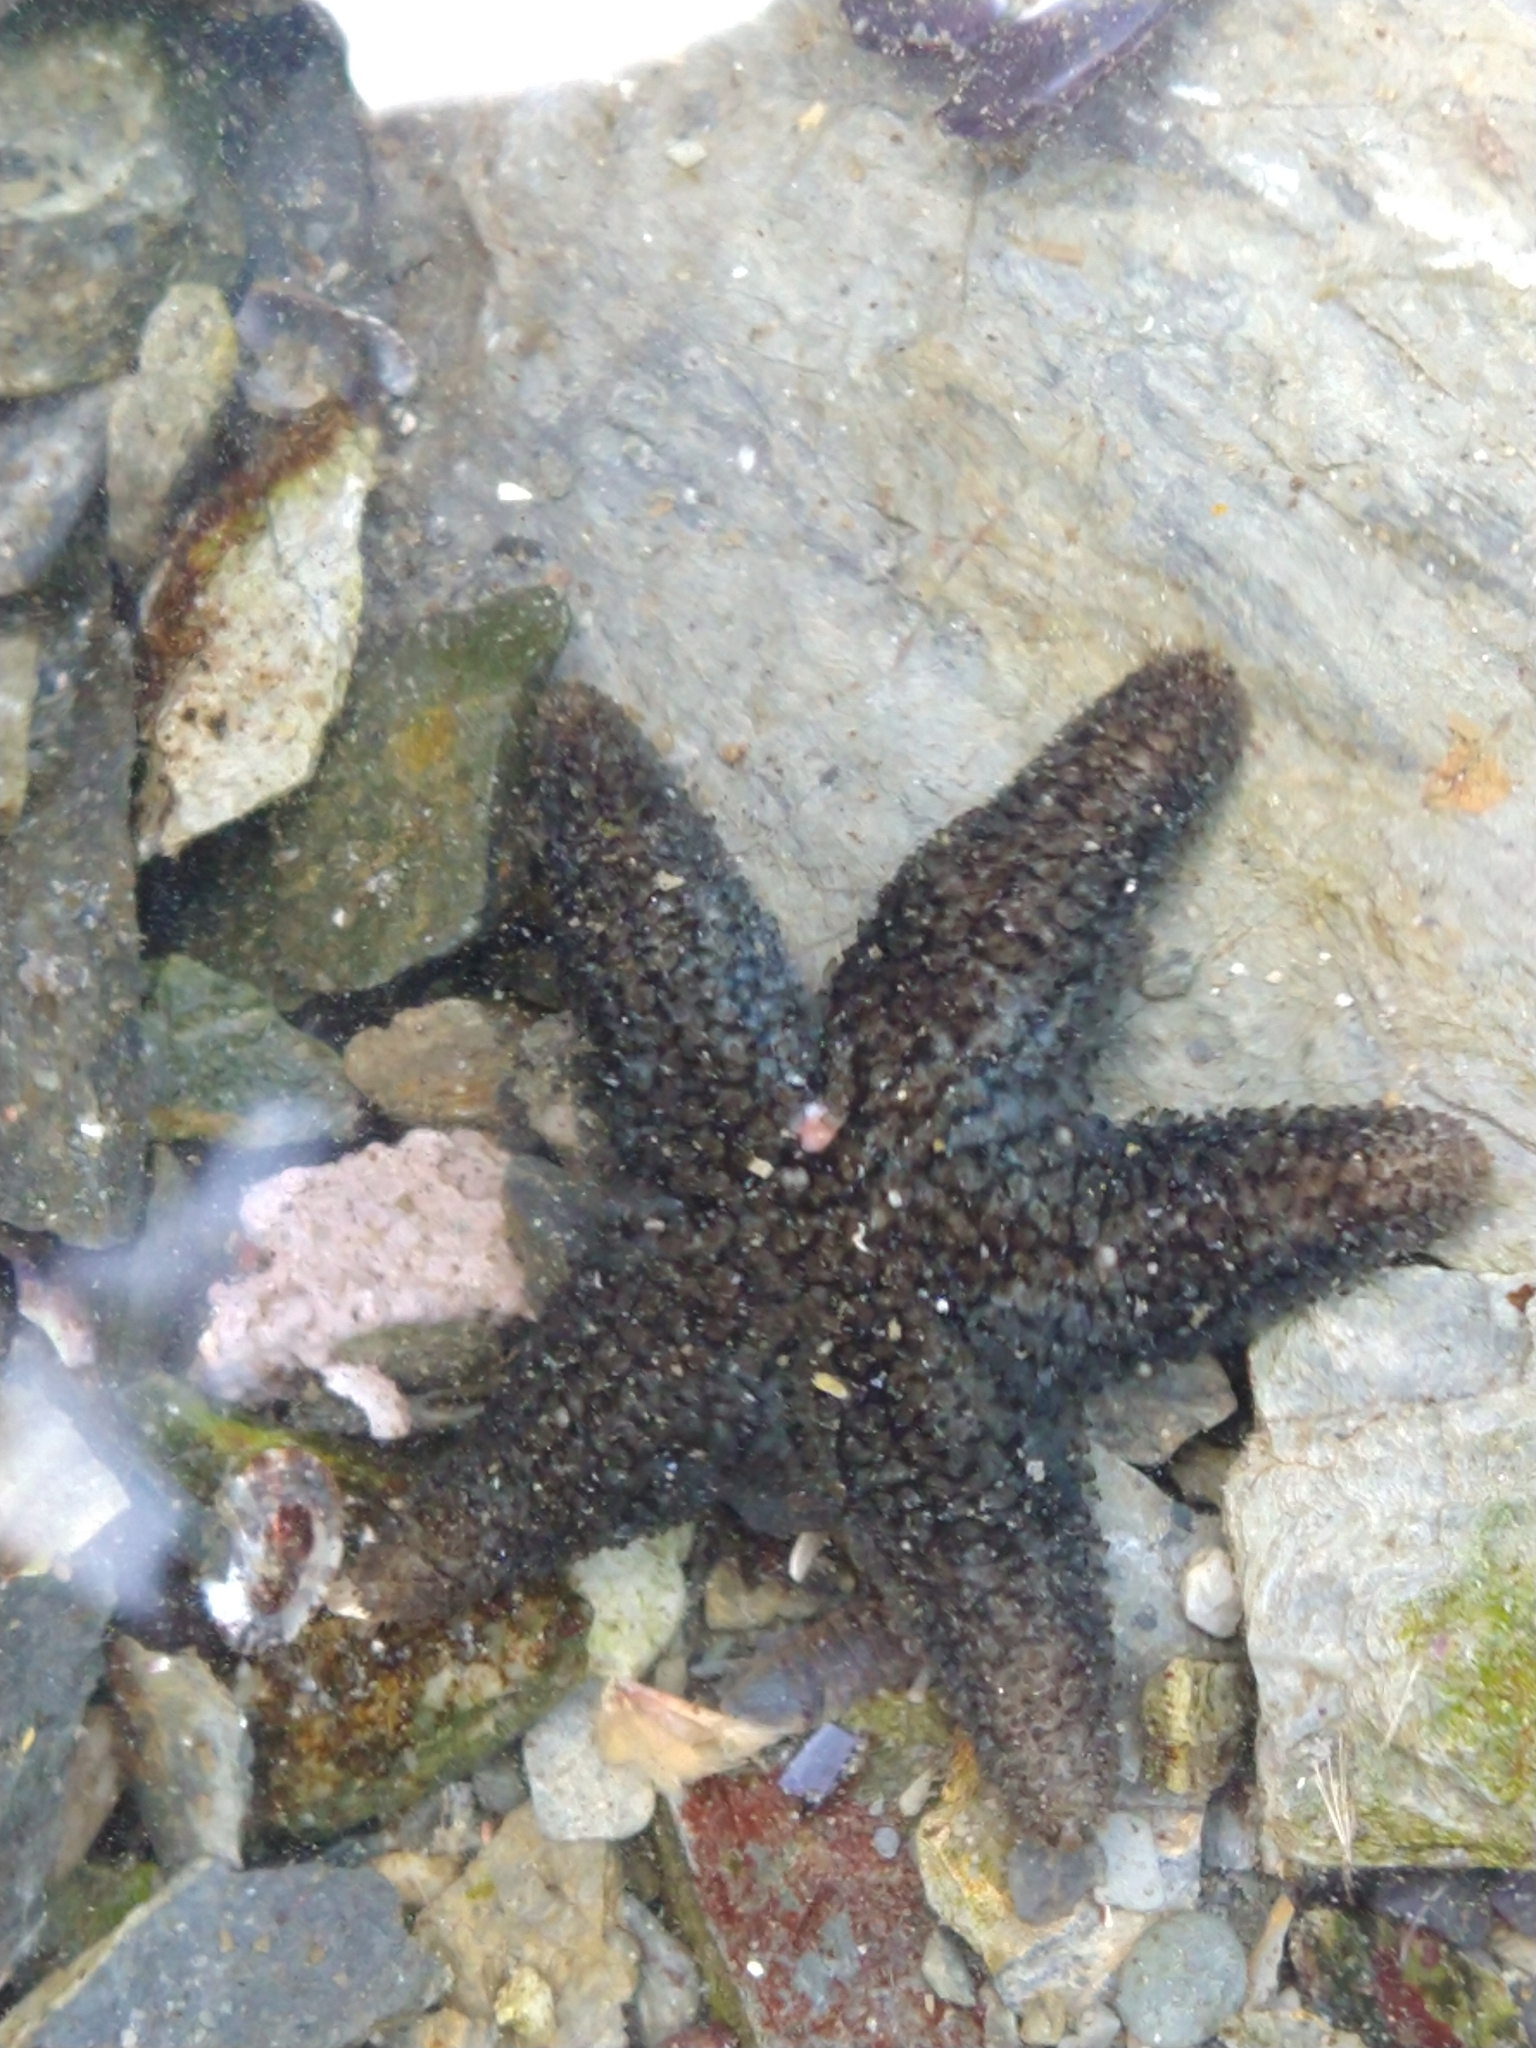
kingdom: Animalia
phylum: Echinodermata
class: Asteroidea
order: Forcipulatida
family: Asteriidae
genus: Anasterias
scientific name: Anasterias antarctica
